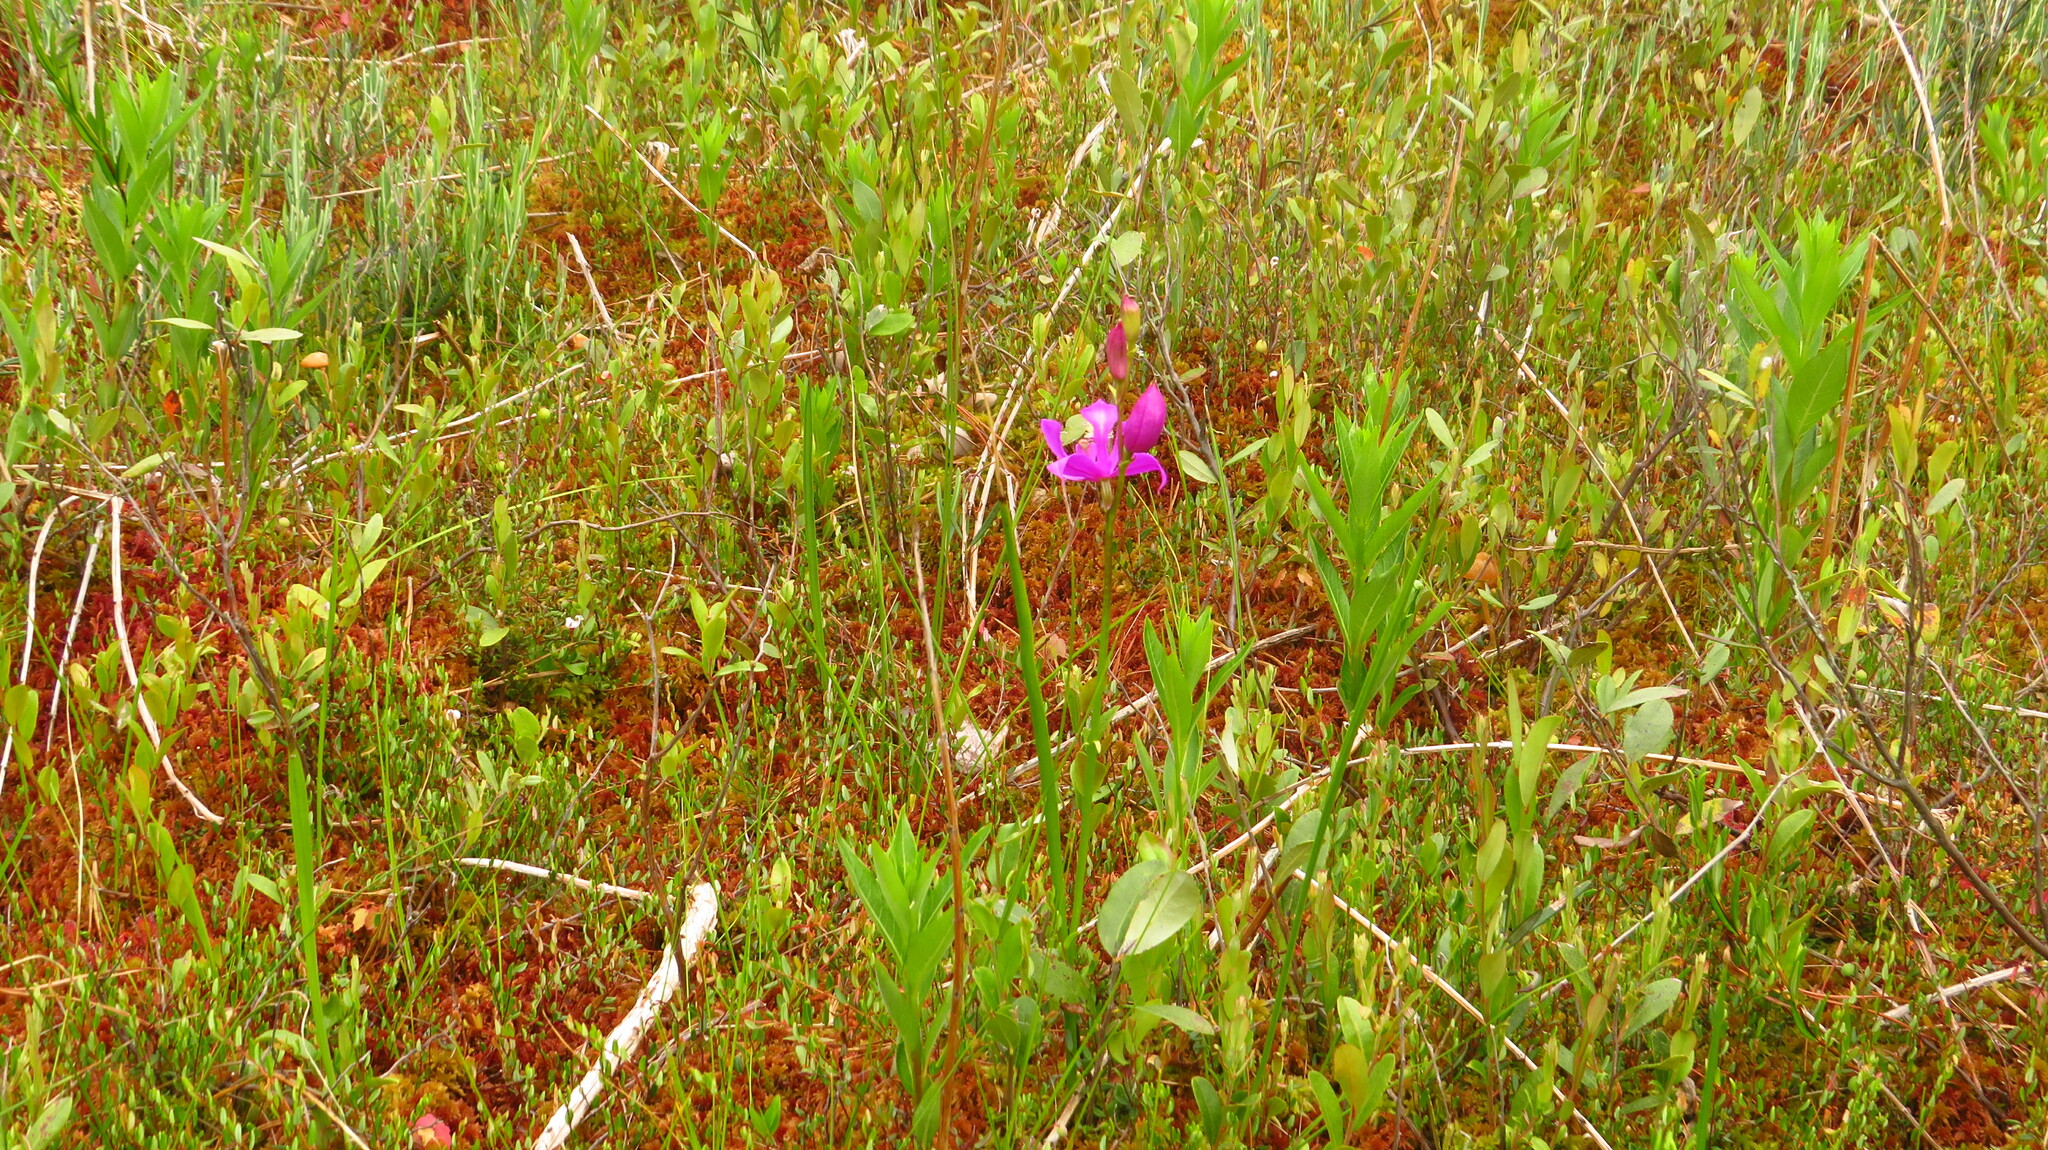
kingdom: Plantae
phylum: Tracheophyta
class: Liliopsida
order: Asparagales
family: Orchidaceae
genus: Calopogon
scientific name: Calopogon tuberosus
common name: Grass-pink
